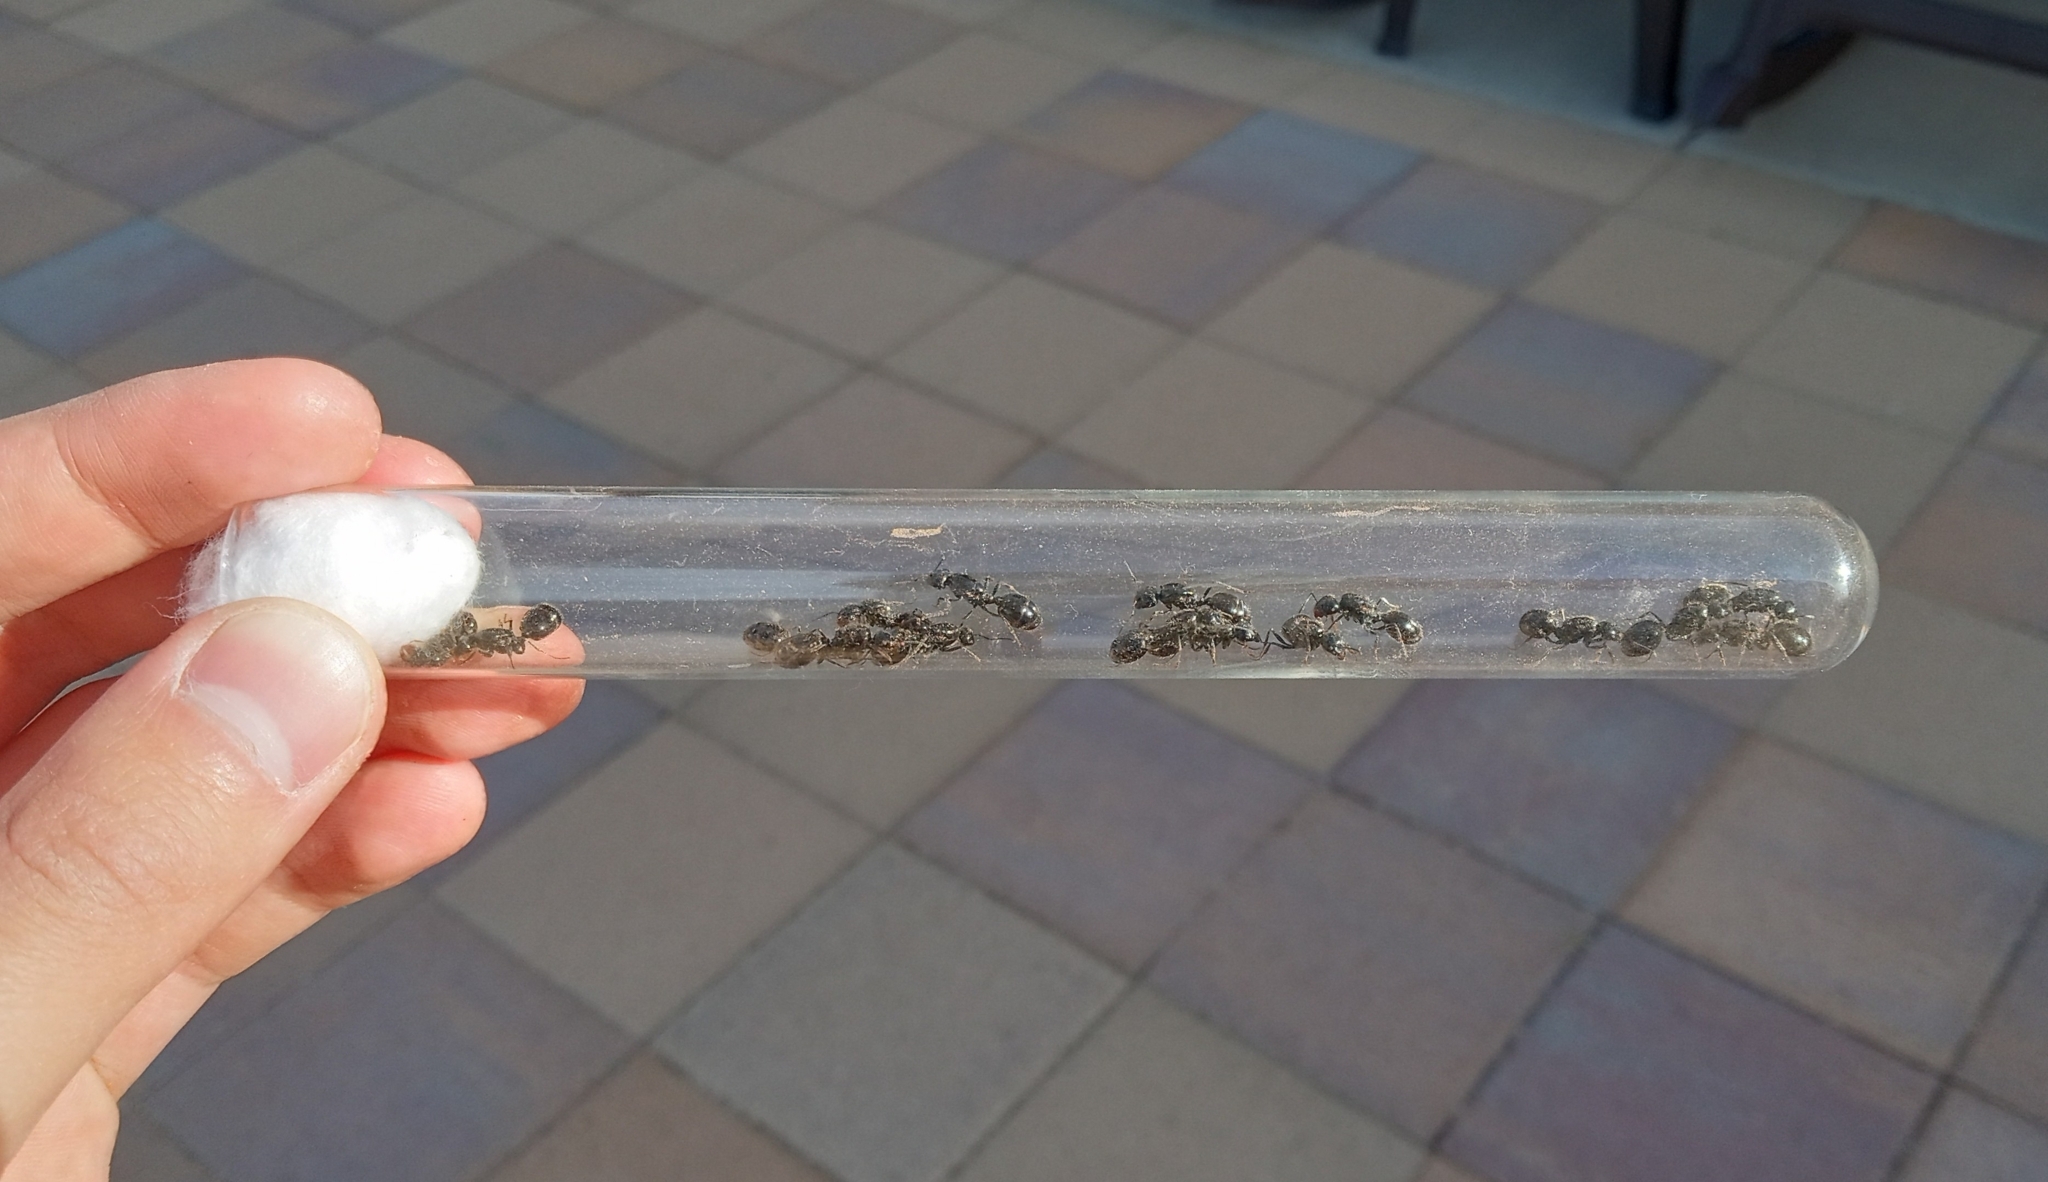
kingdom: Animalia
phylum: Arthropoda
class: Insecta
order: Hymenoptera
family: Formicidae
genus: Messor
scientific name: Messor pergandei
